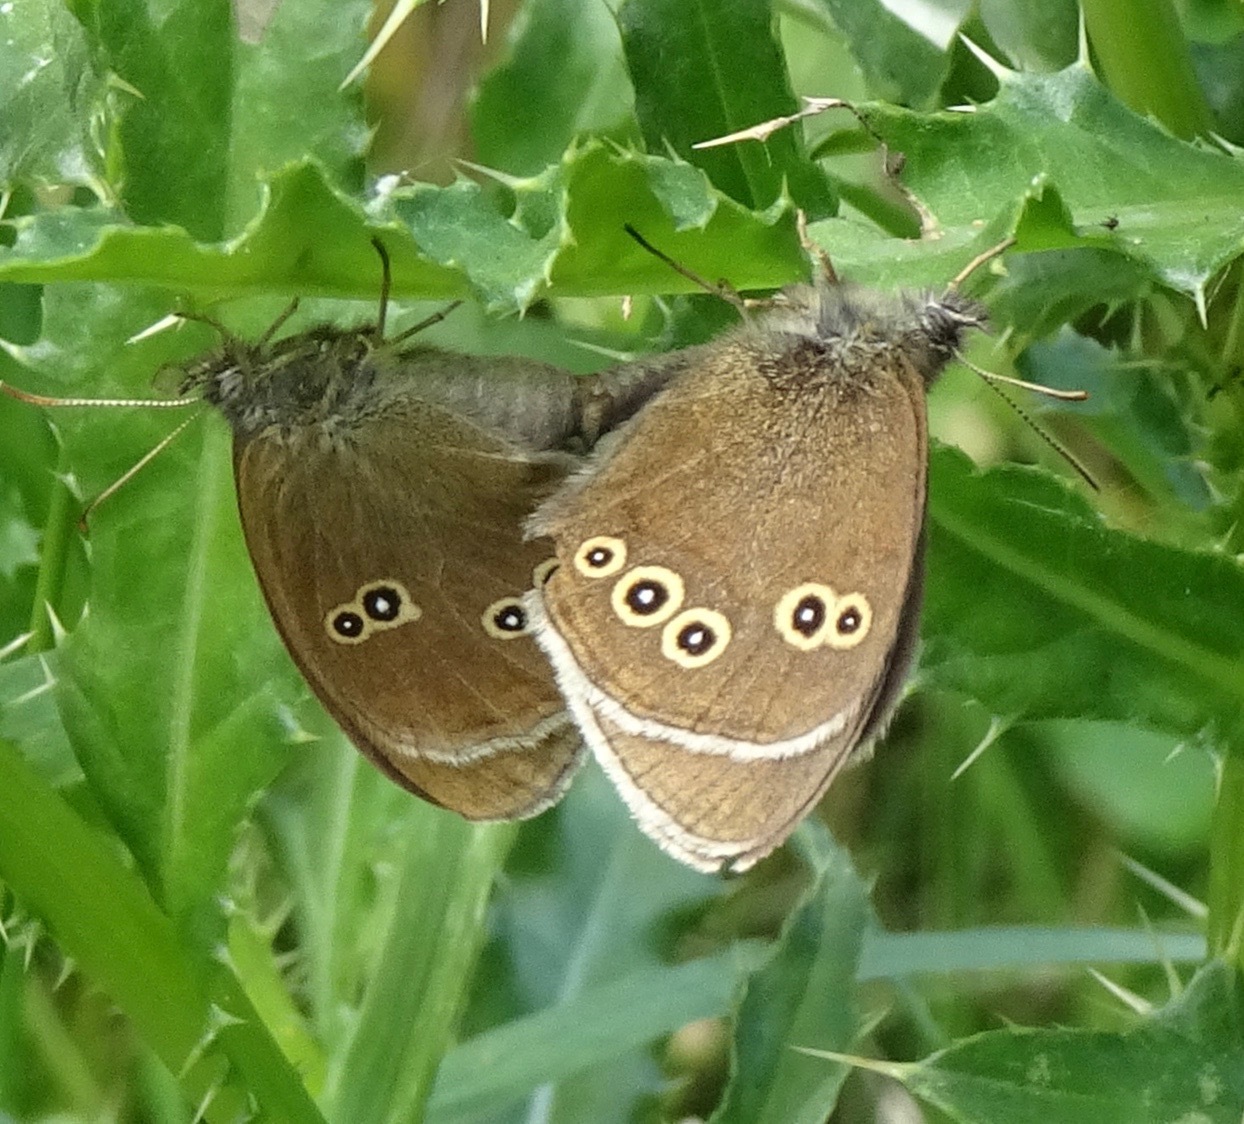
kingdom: Animalia
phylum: Arthropoda
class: Insecta
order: Lepidoptera
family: Nymphalidae
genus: Aphantopus
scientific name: Aphantopus hyperantus
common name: Ringlet
